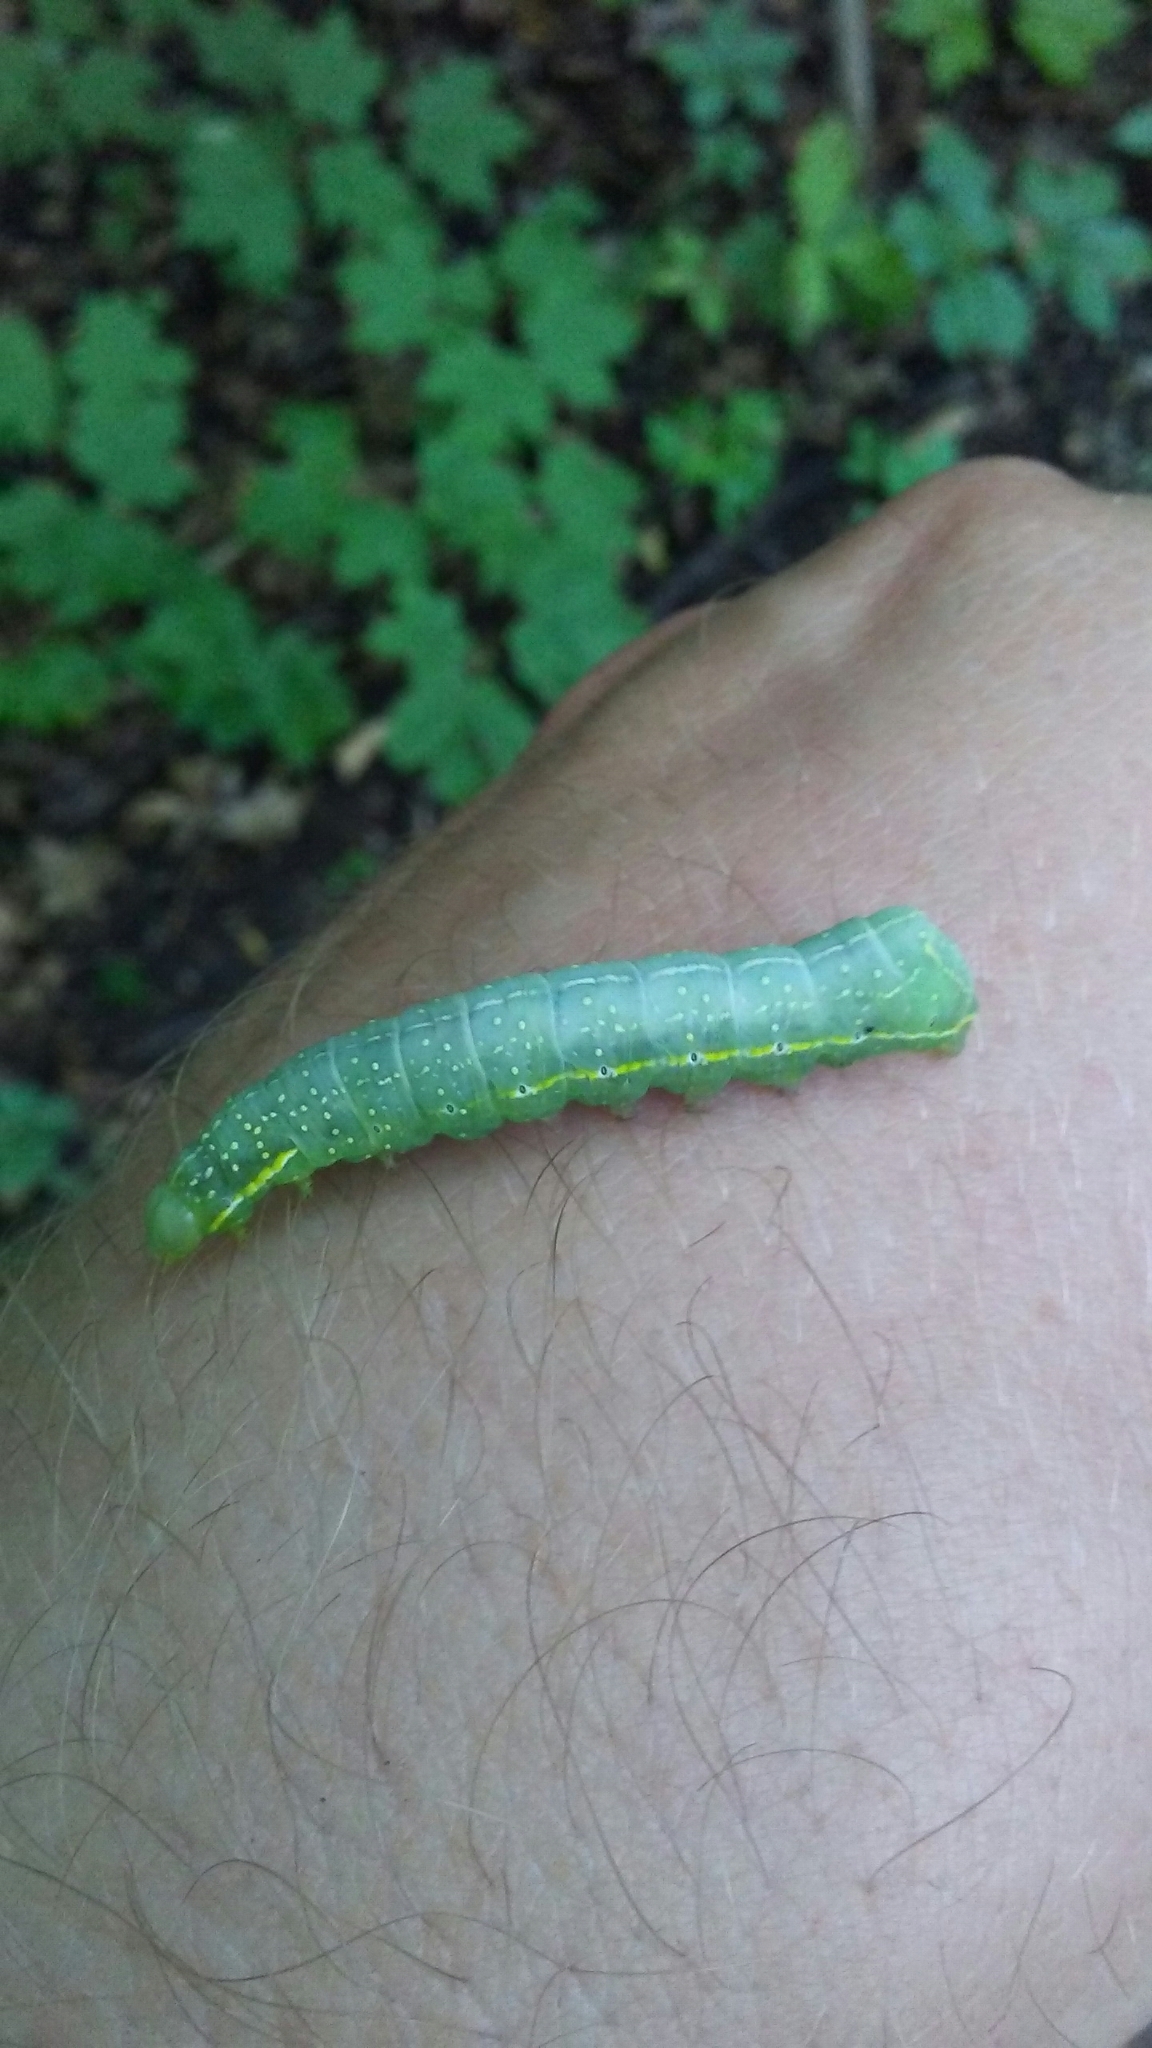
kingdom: Animalia
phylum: Arthropoda
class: Insecta
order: Lepidoptera
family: Noctuidae
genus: Amphipyra
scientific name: Amphipyra pyramidoides
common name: American copper underwing
